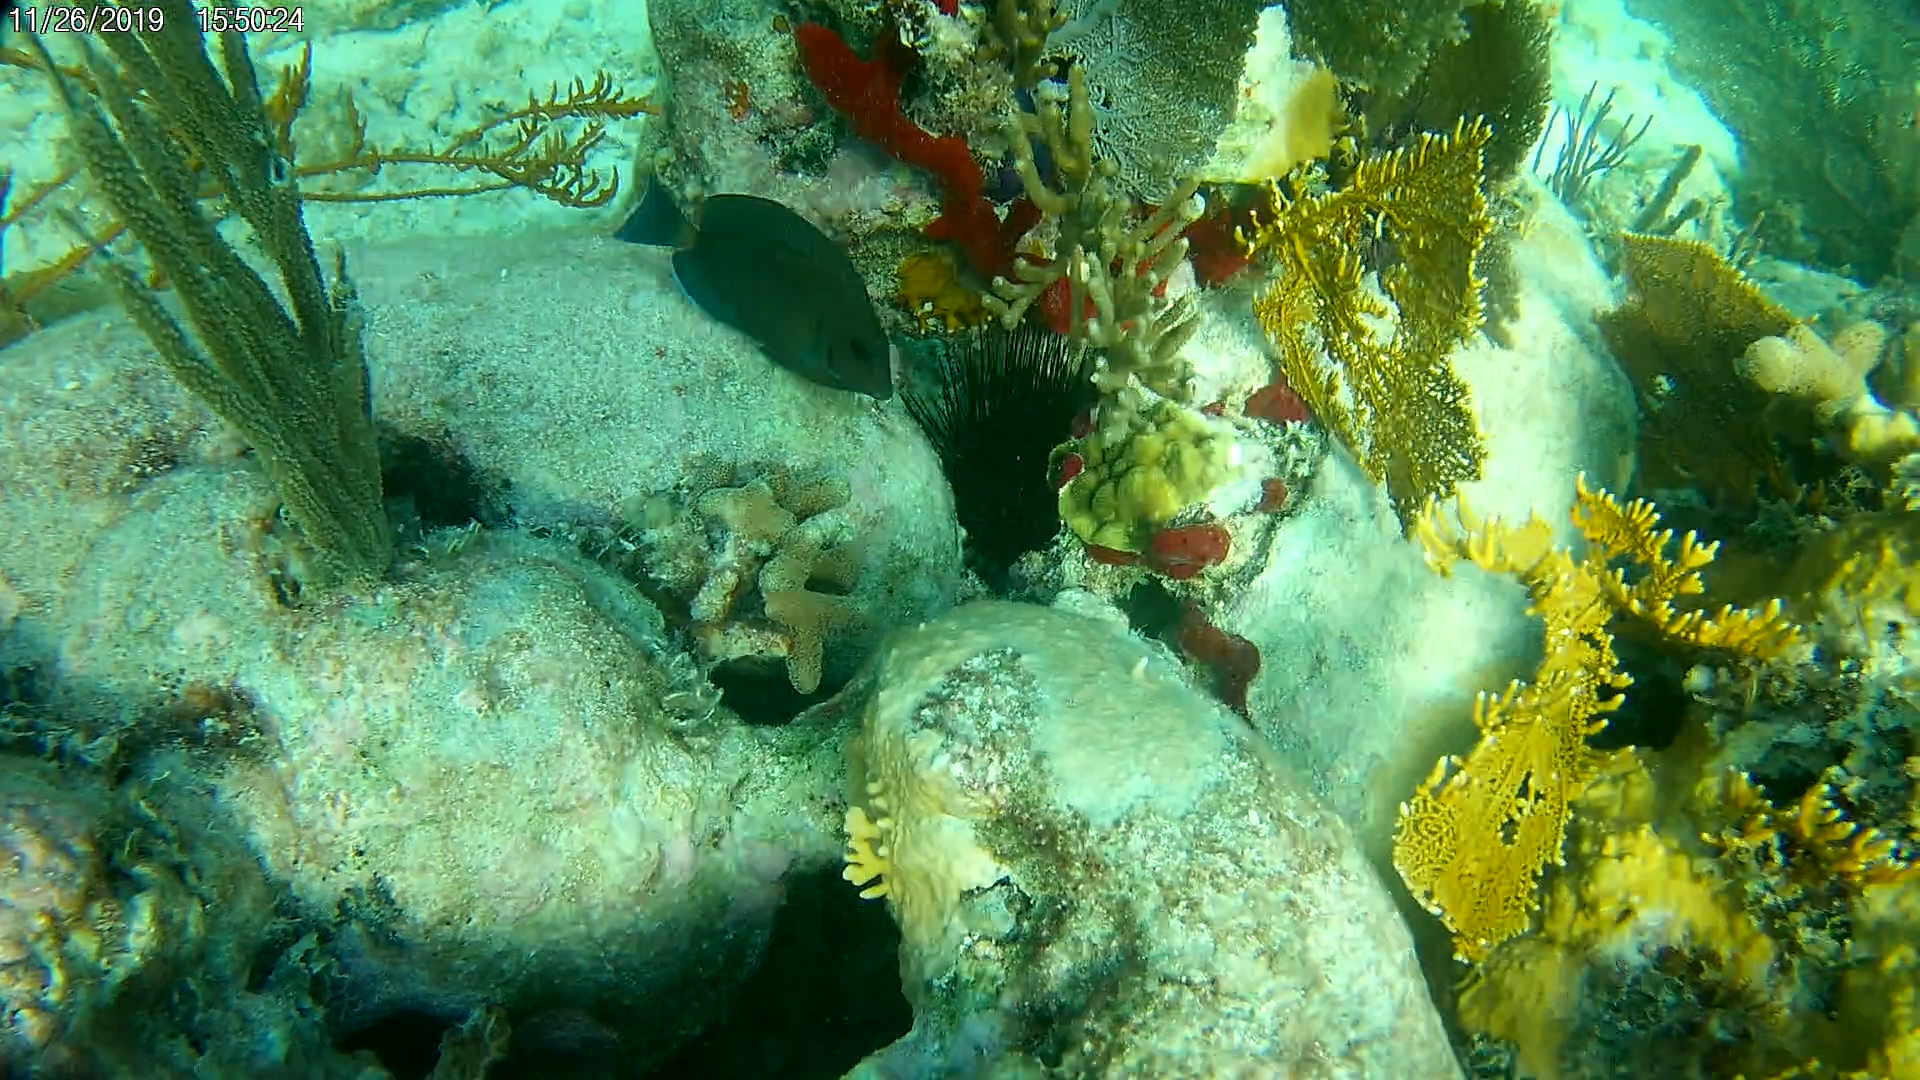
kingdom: Animalia
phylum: Echinodermata
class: Echinoidea
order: Diadematoida
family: Diadematidae
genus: Diadema
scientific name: Diadema antillarum
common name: Spiny urchin
